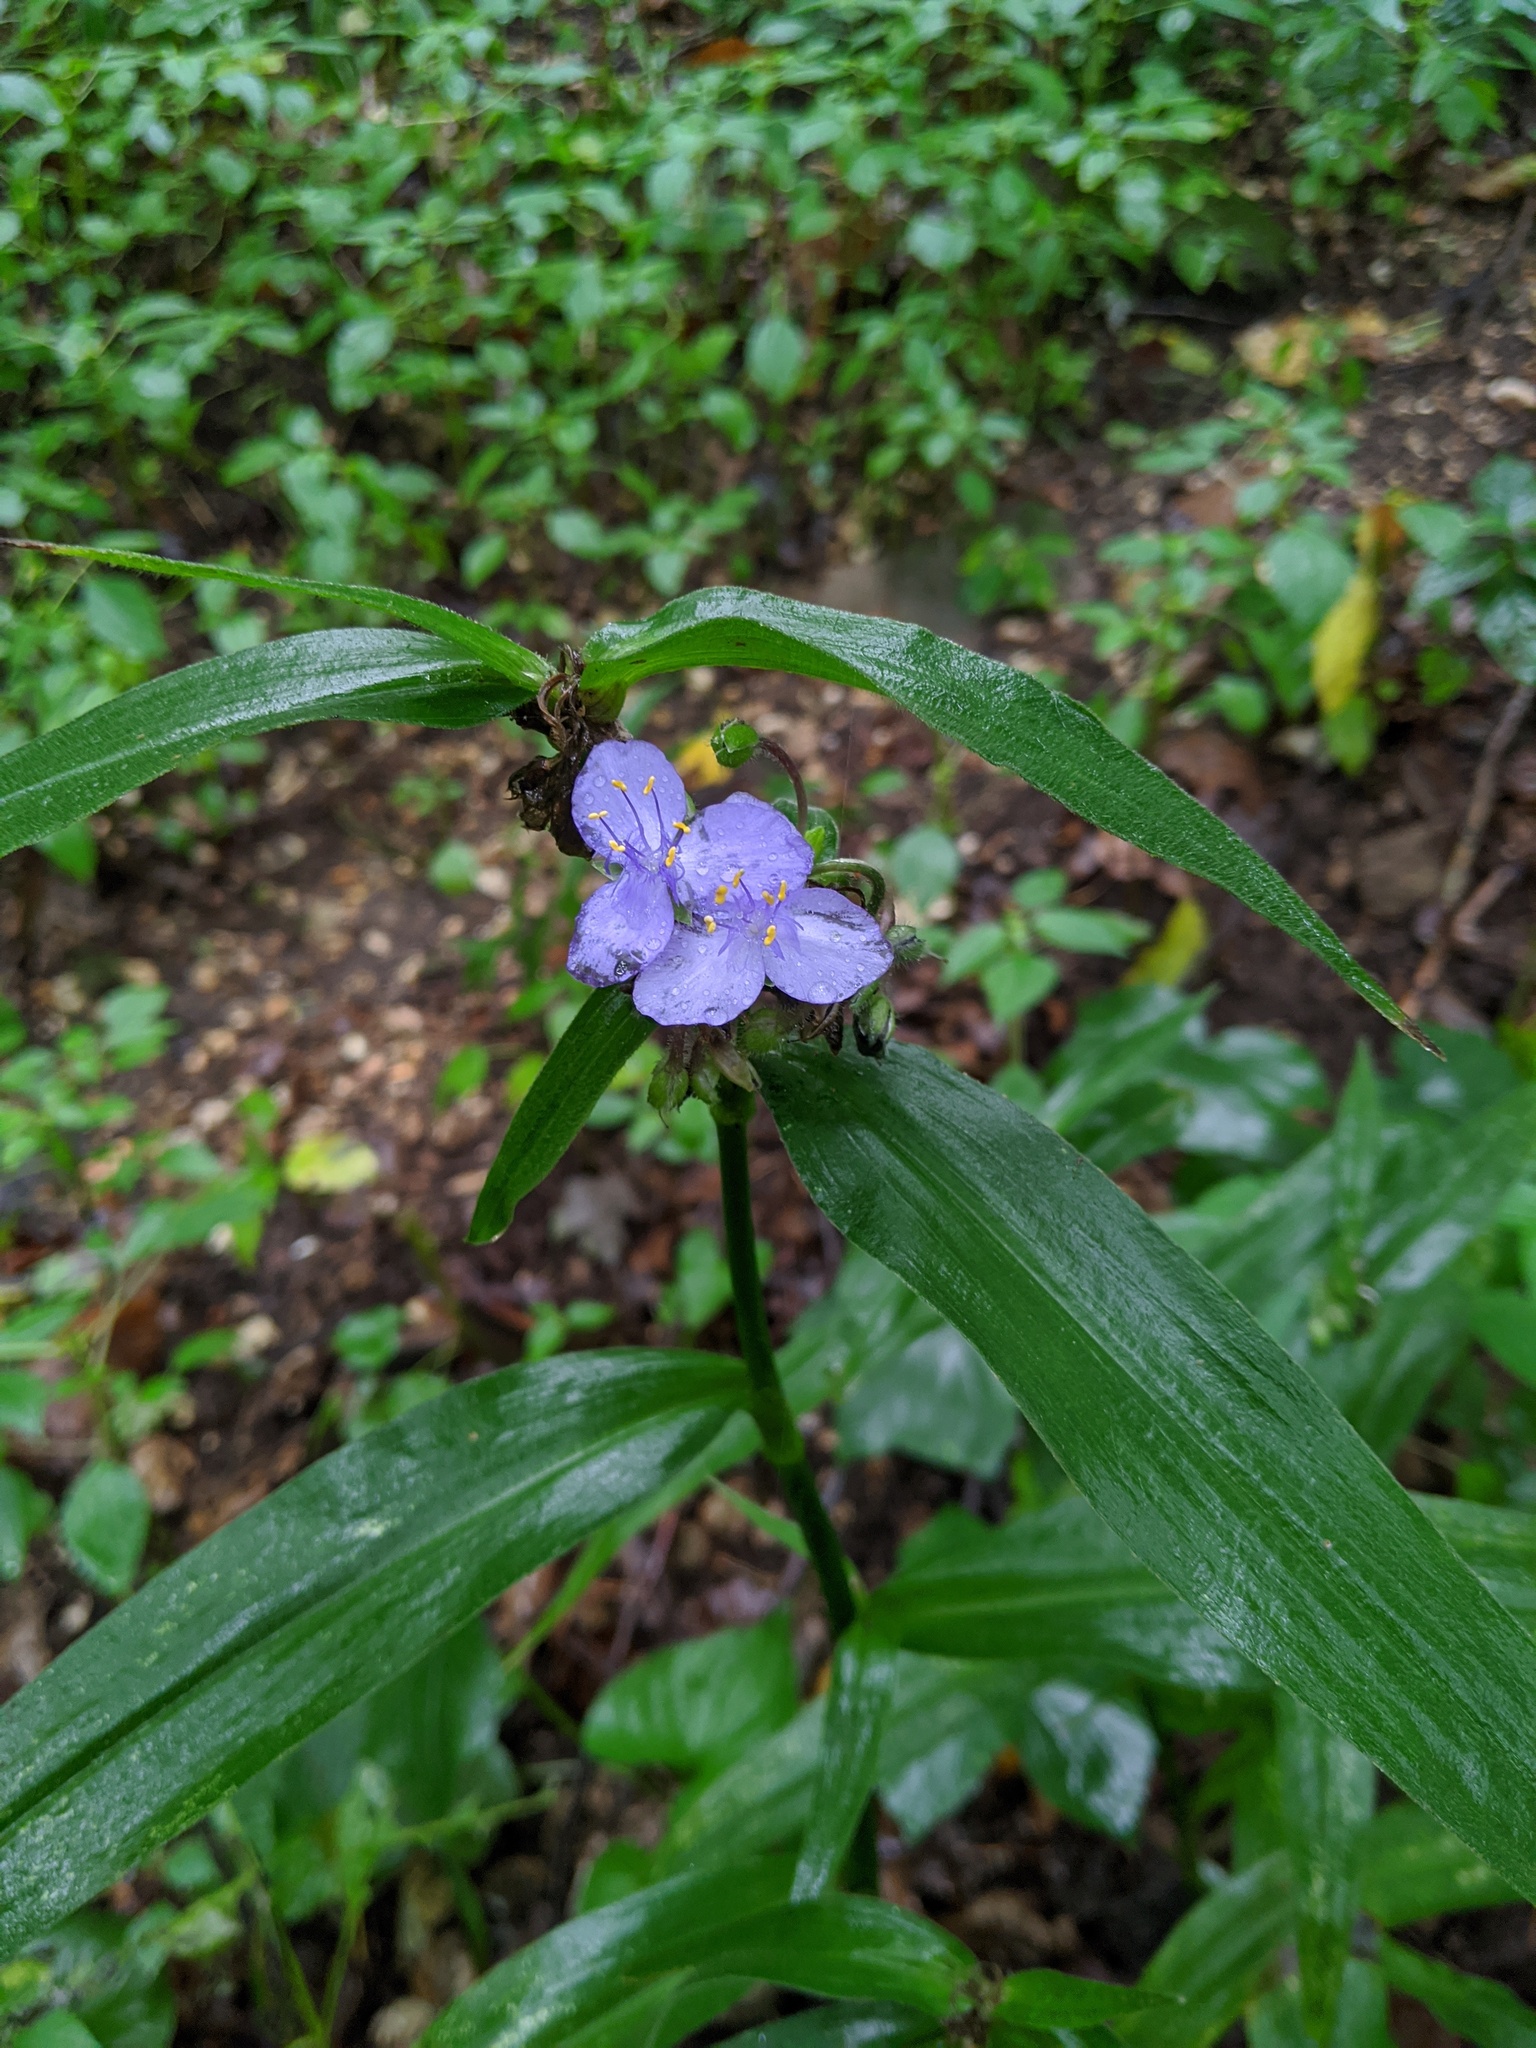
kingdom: Plantae
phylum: Tracheophyta
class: Liliopsida
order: Commelinales
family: Commelinaceae
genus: Tradescantia
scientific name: Tradescantia subaspera
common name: Wide-leaf spiderwort
